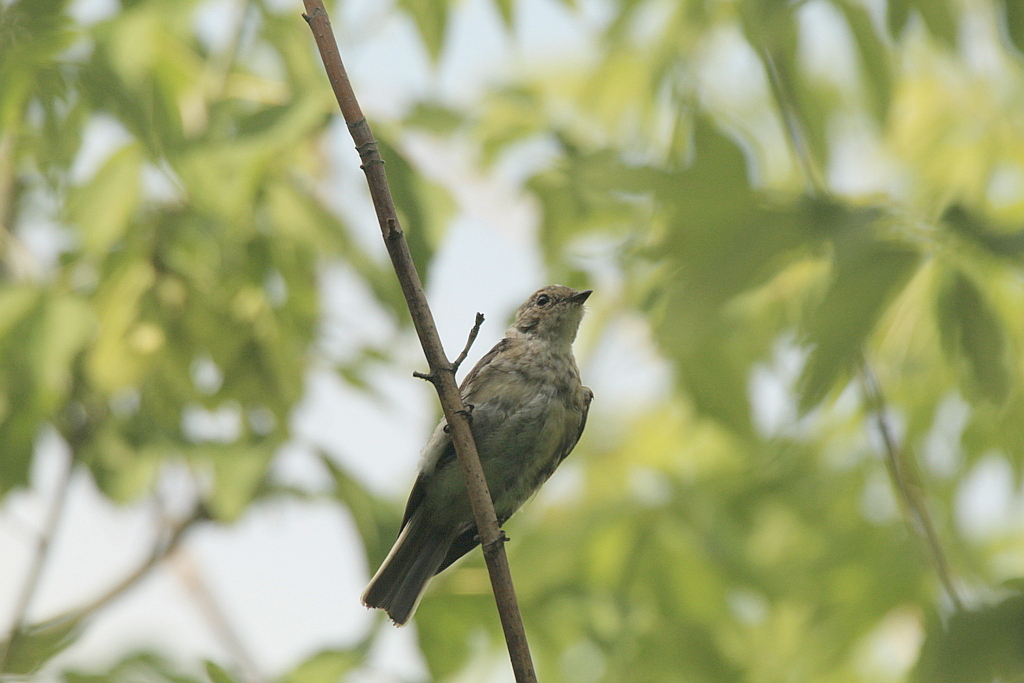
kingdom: Animalia
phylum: Chordata
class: Aves
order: Passeriformes
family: Muscicapidae
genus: Ficedula
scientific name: Ficedula albicollis
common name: Collared flycatcher
